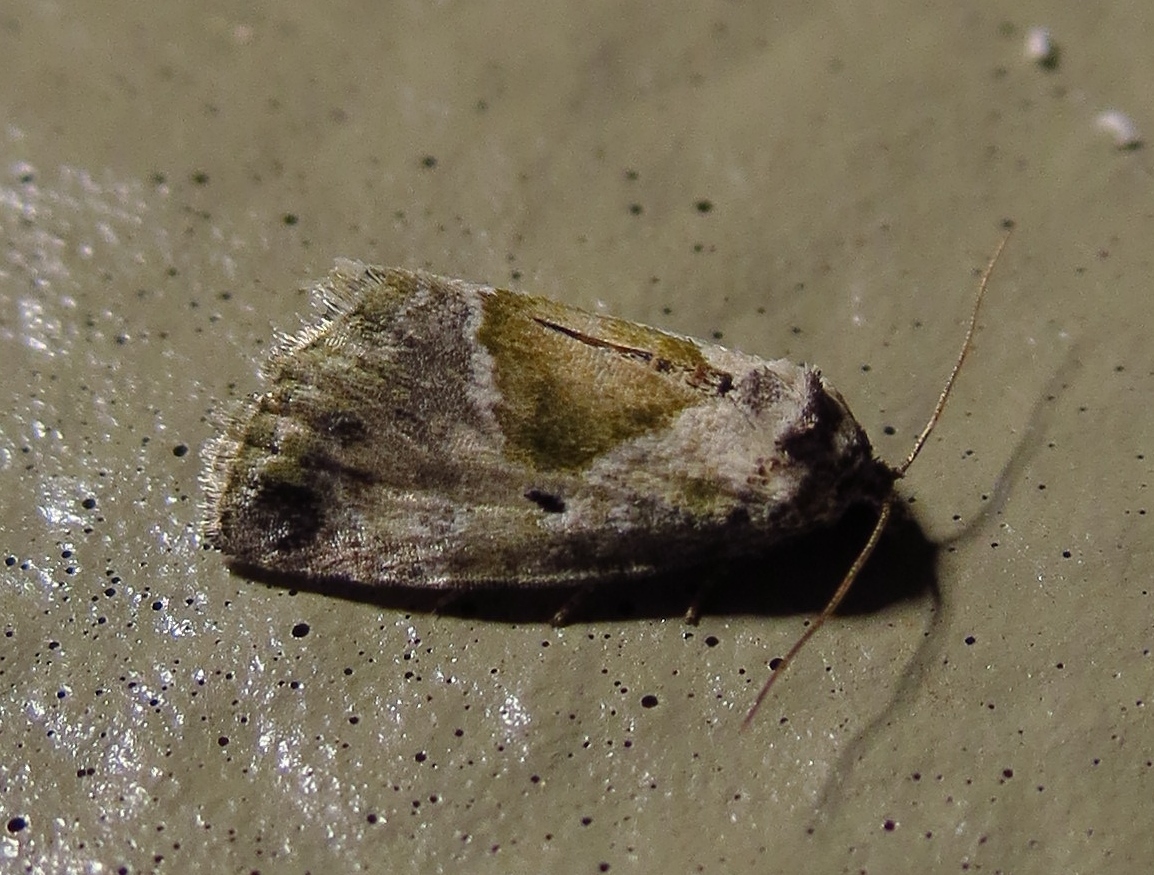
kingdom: Animalia
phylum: Arthropoda
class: Insecta
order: Lepidoptera
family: Noctuidae
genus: Maliattha
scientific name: Maliattha synochitis
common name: Black-dotted glyph
